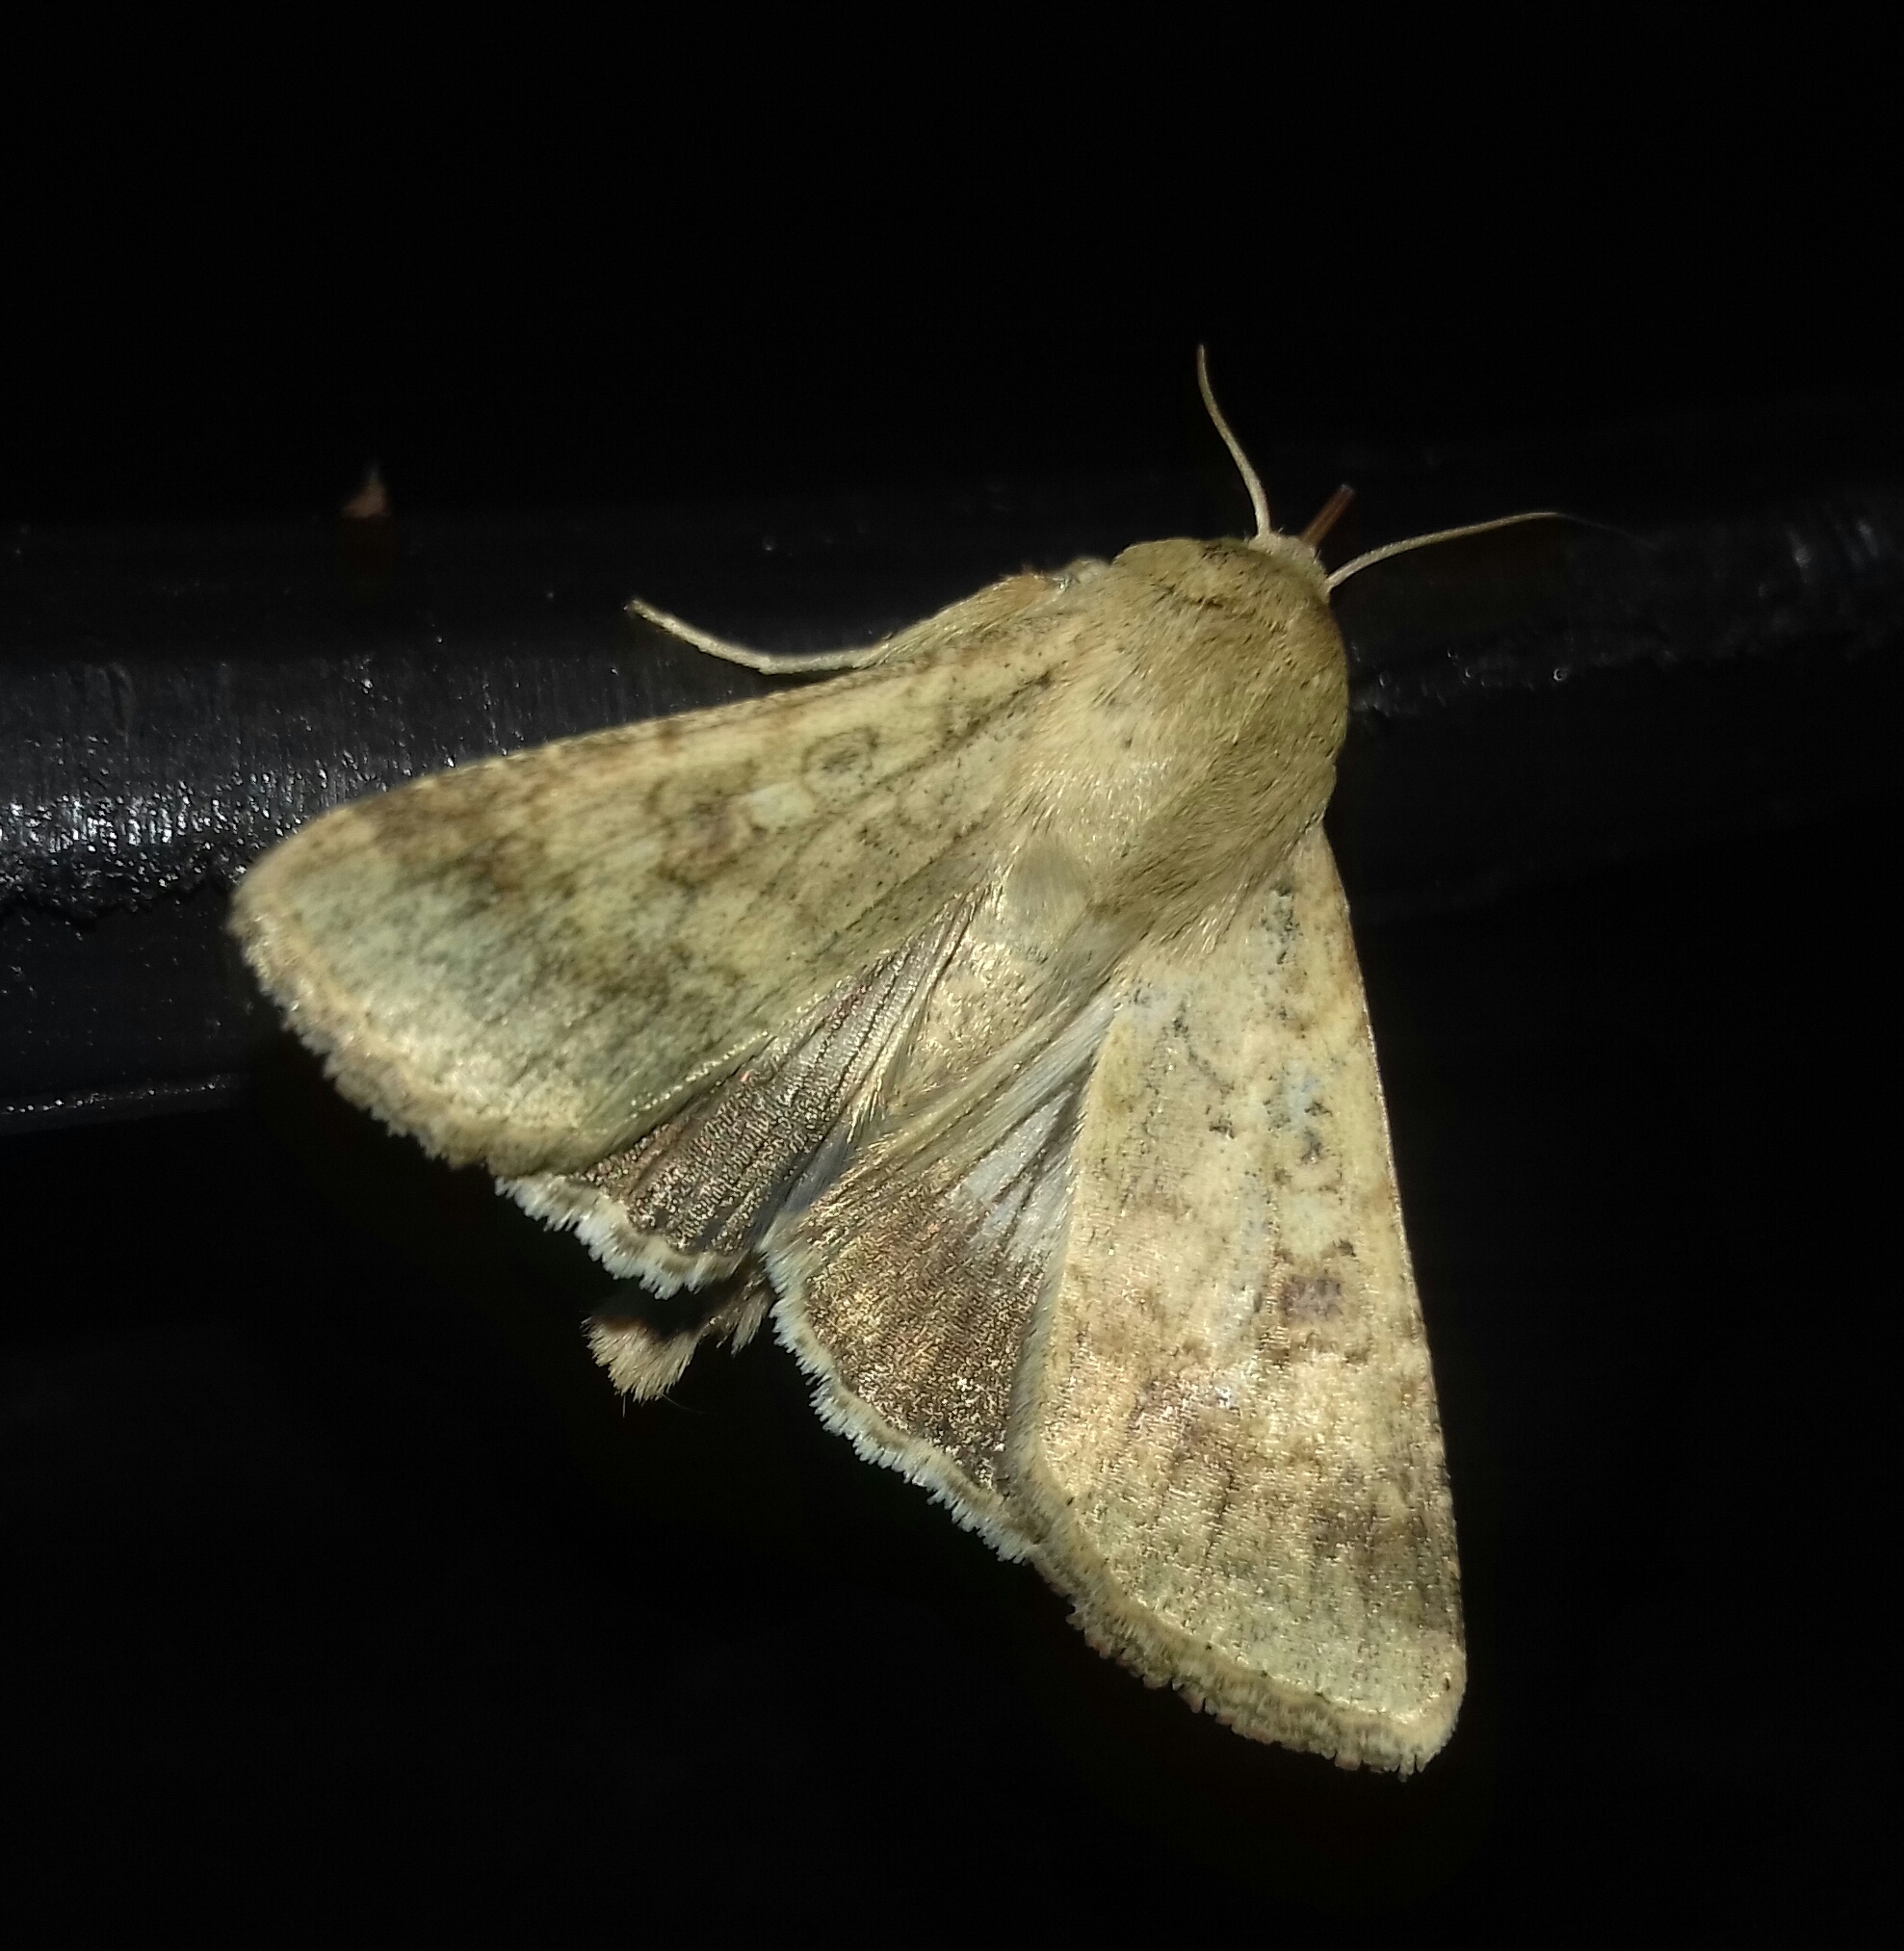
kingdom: Animalia
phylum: Arthropoda
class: Insecta
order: Lepidoptera
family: Noctuidae
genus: Helicoverpa
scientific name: Helicoverpa armigera
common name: Cotton bollworm
